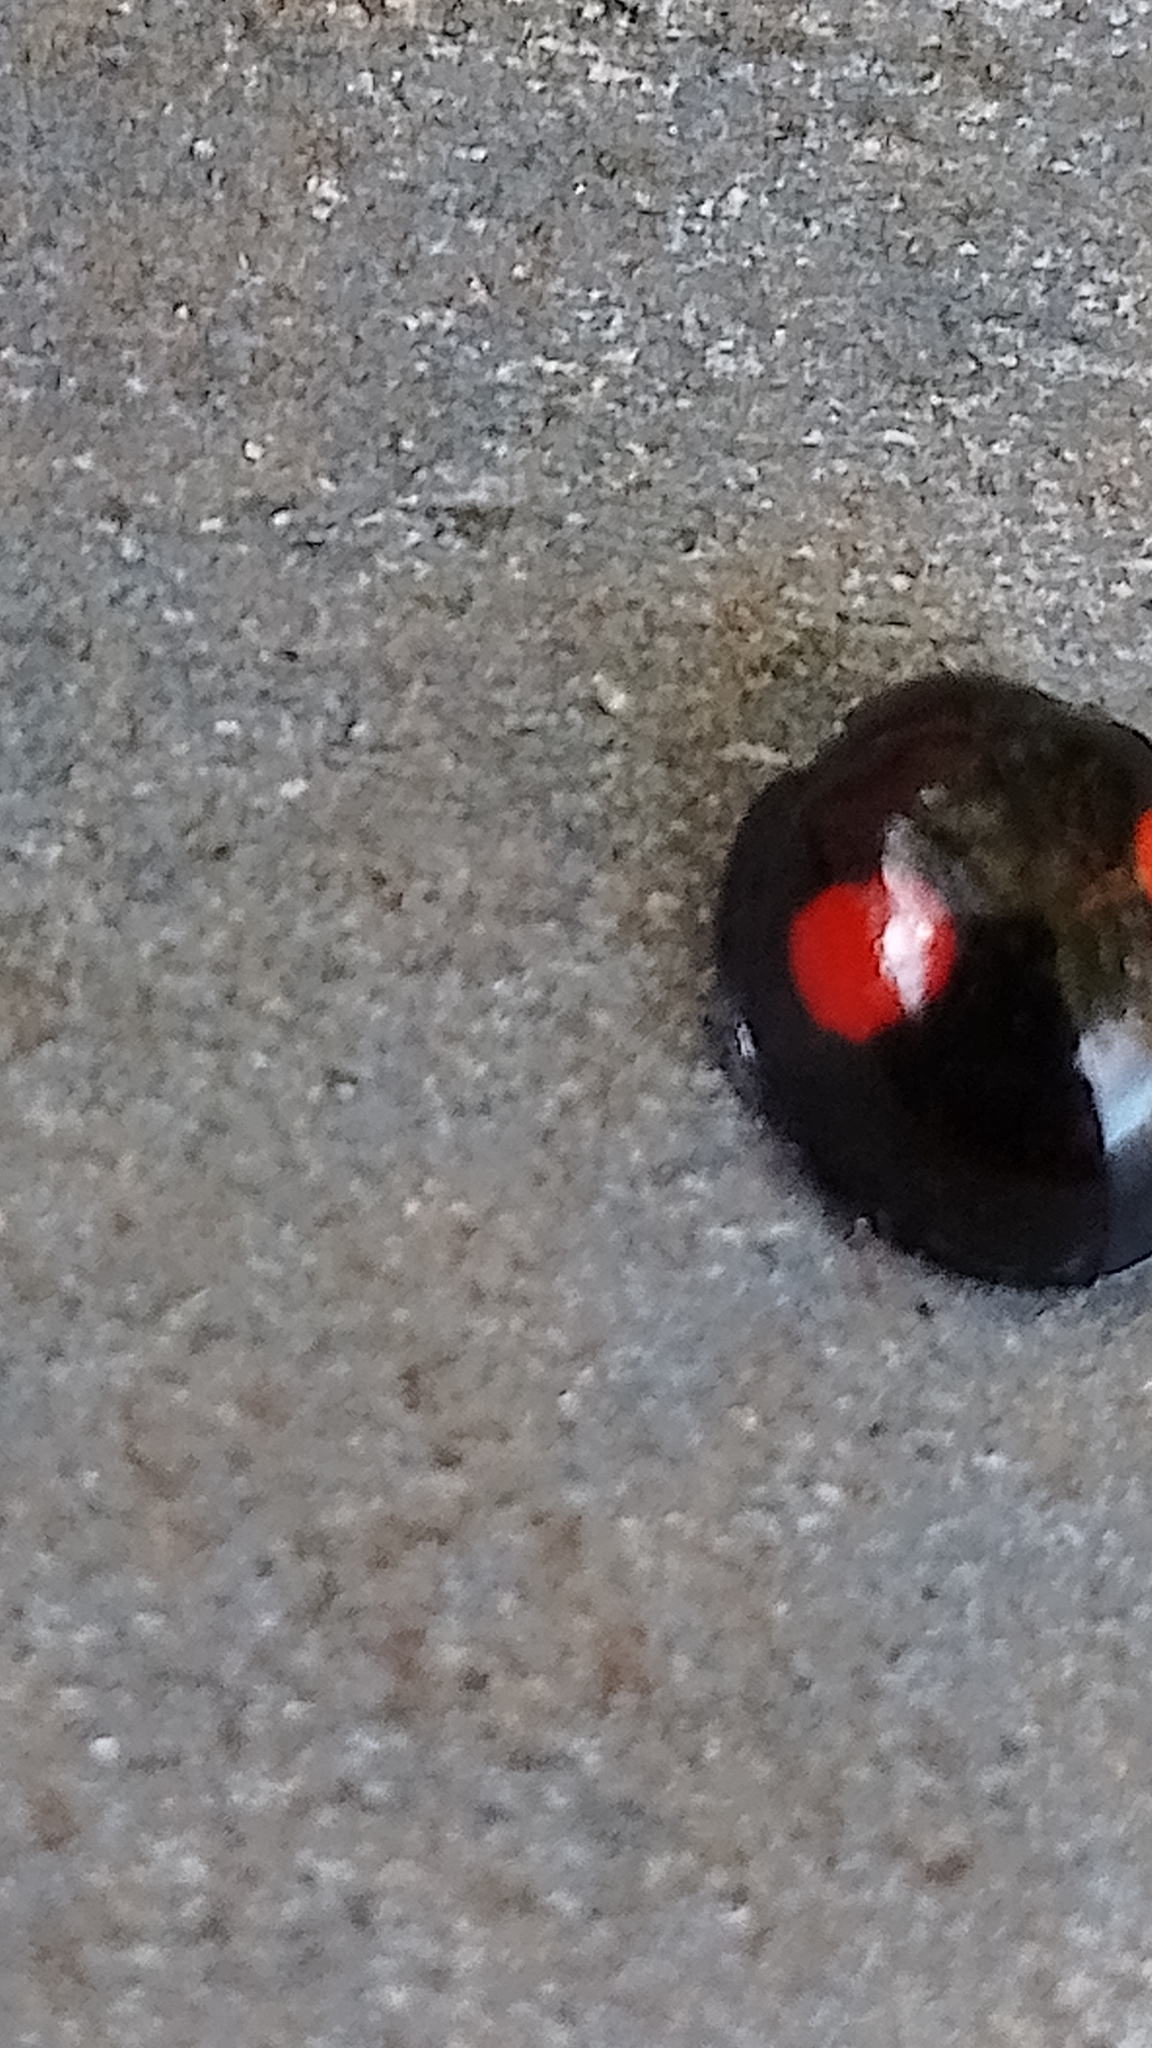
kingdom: Animalia
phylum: Arthropoda
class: Insecta
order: Coleoptera
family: Coccinellidae
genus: Chilocorus
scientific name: Chilocorus renipustulatus
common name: Kidney-spot ladybird
